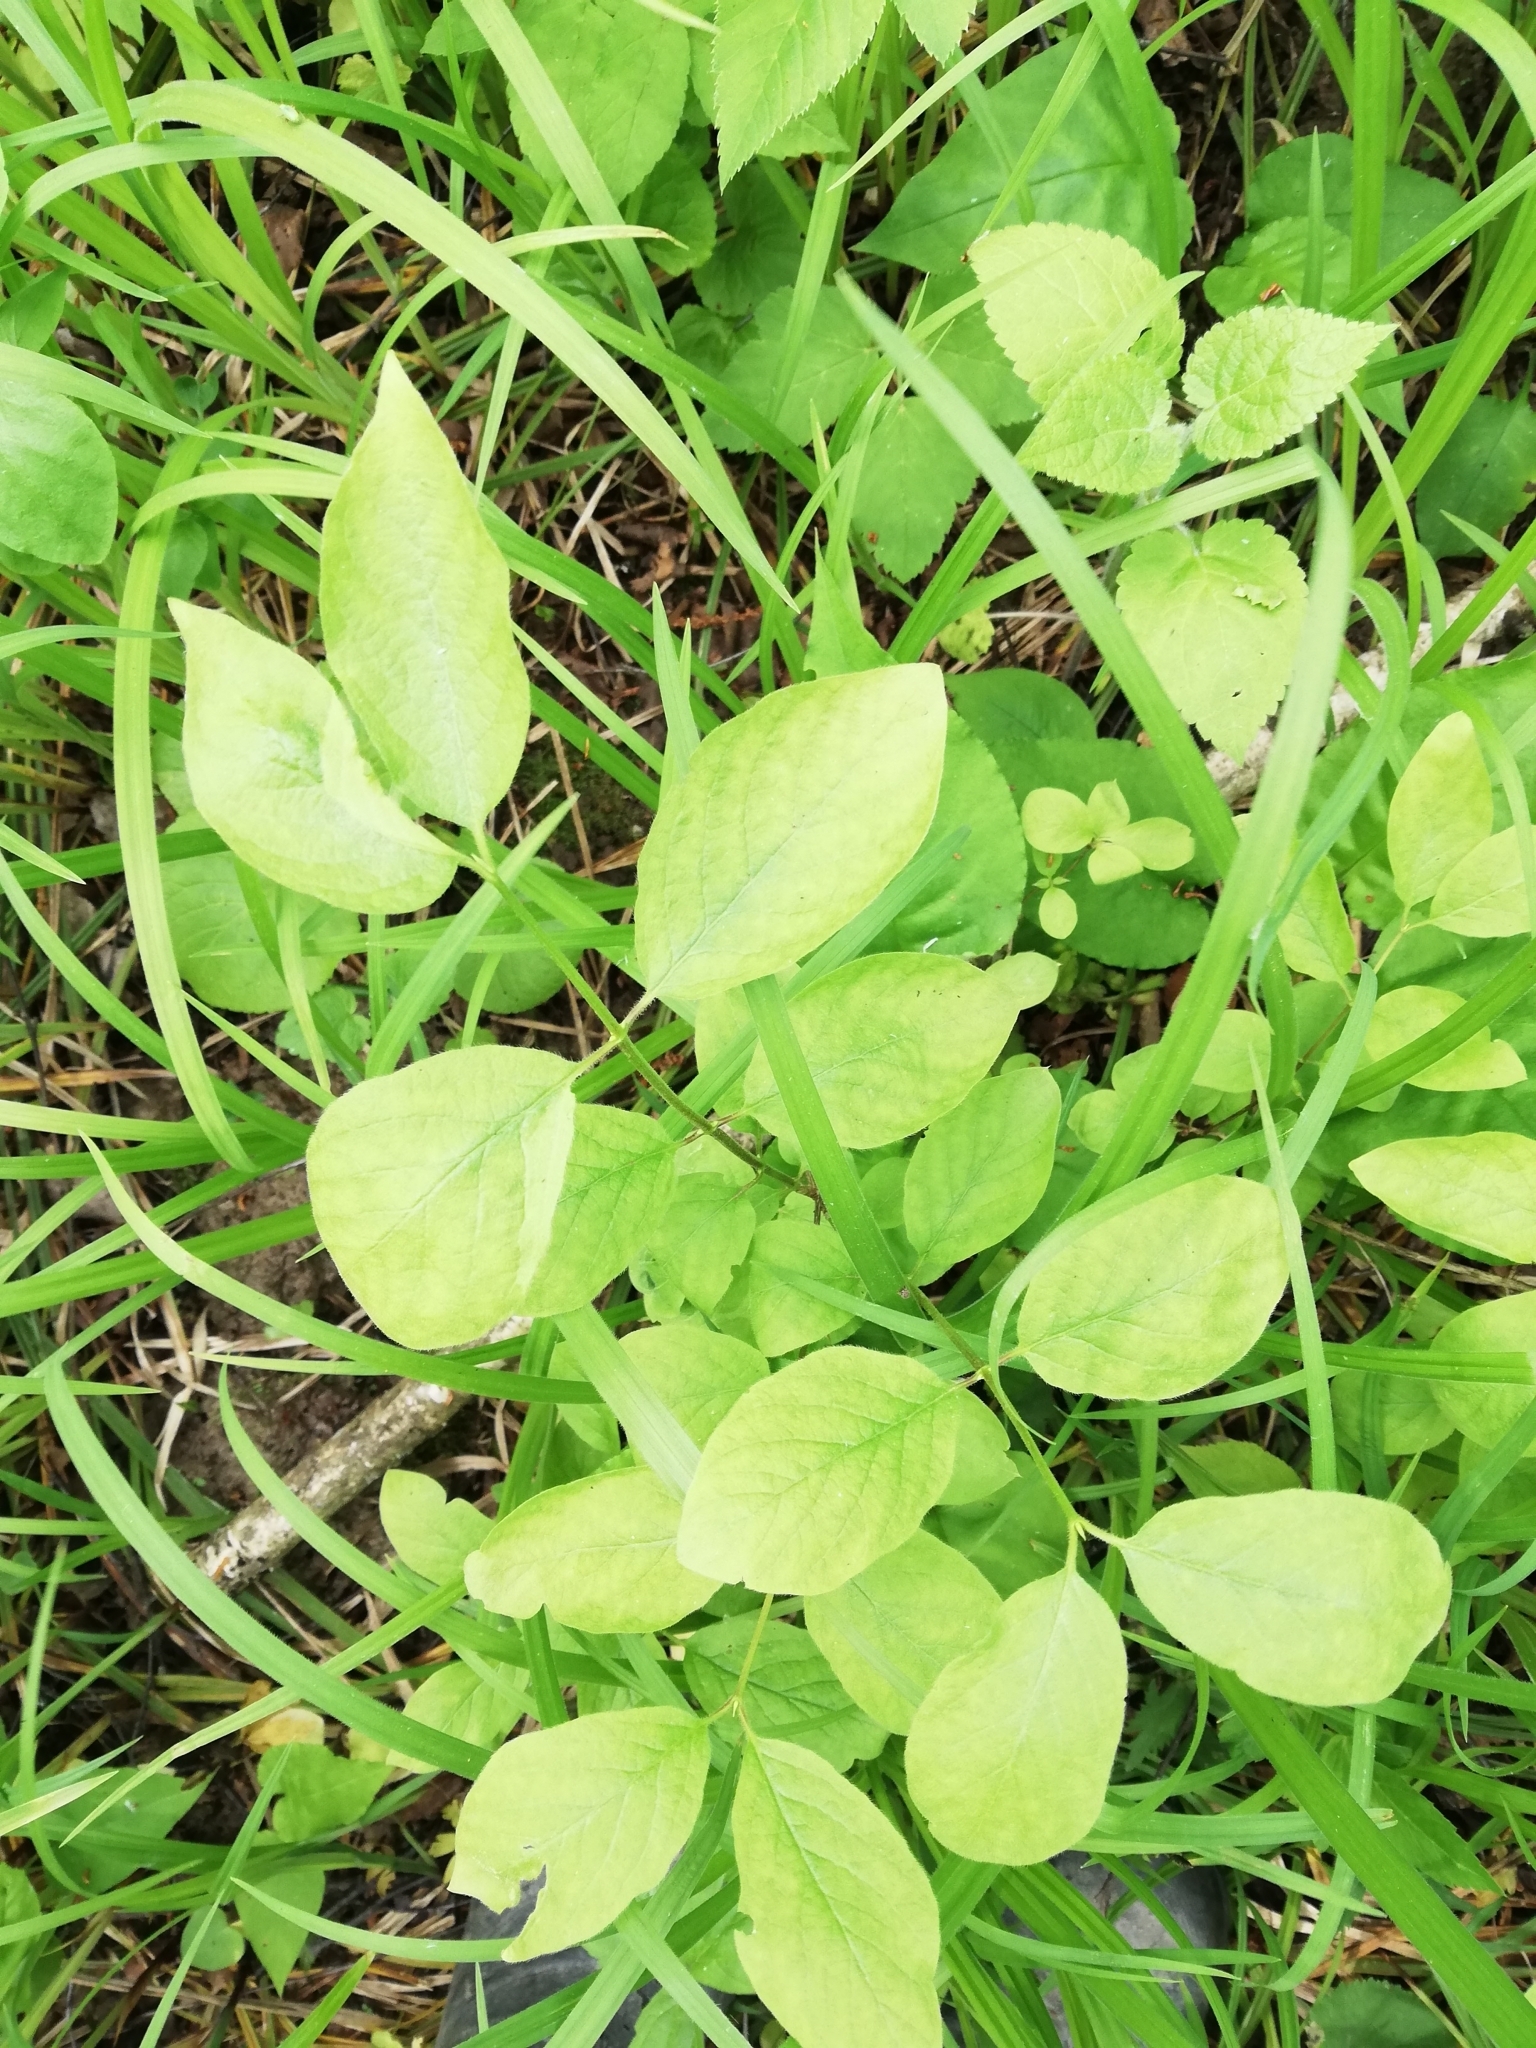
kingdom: Plantae
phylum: Tracheophyta
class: Magnoliopsida
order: Dipsacales
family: Caprifoliaceae
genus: Lonicera
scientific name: Lonicera xylosteum
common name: Fly honeysuckle
